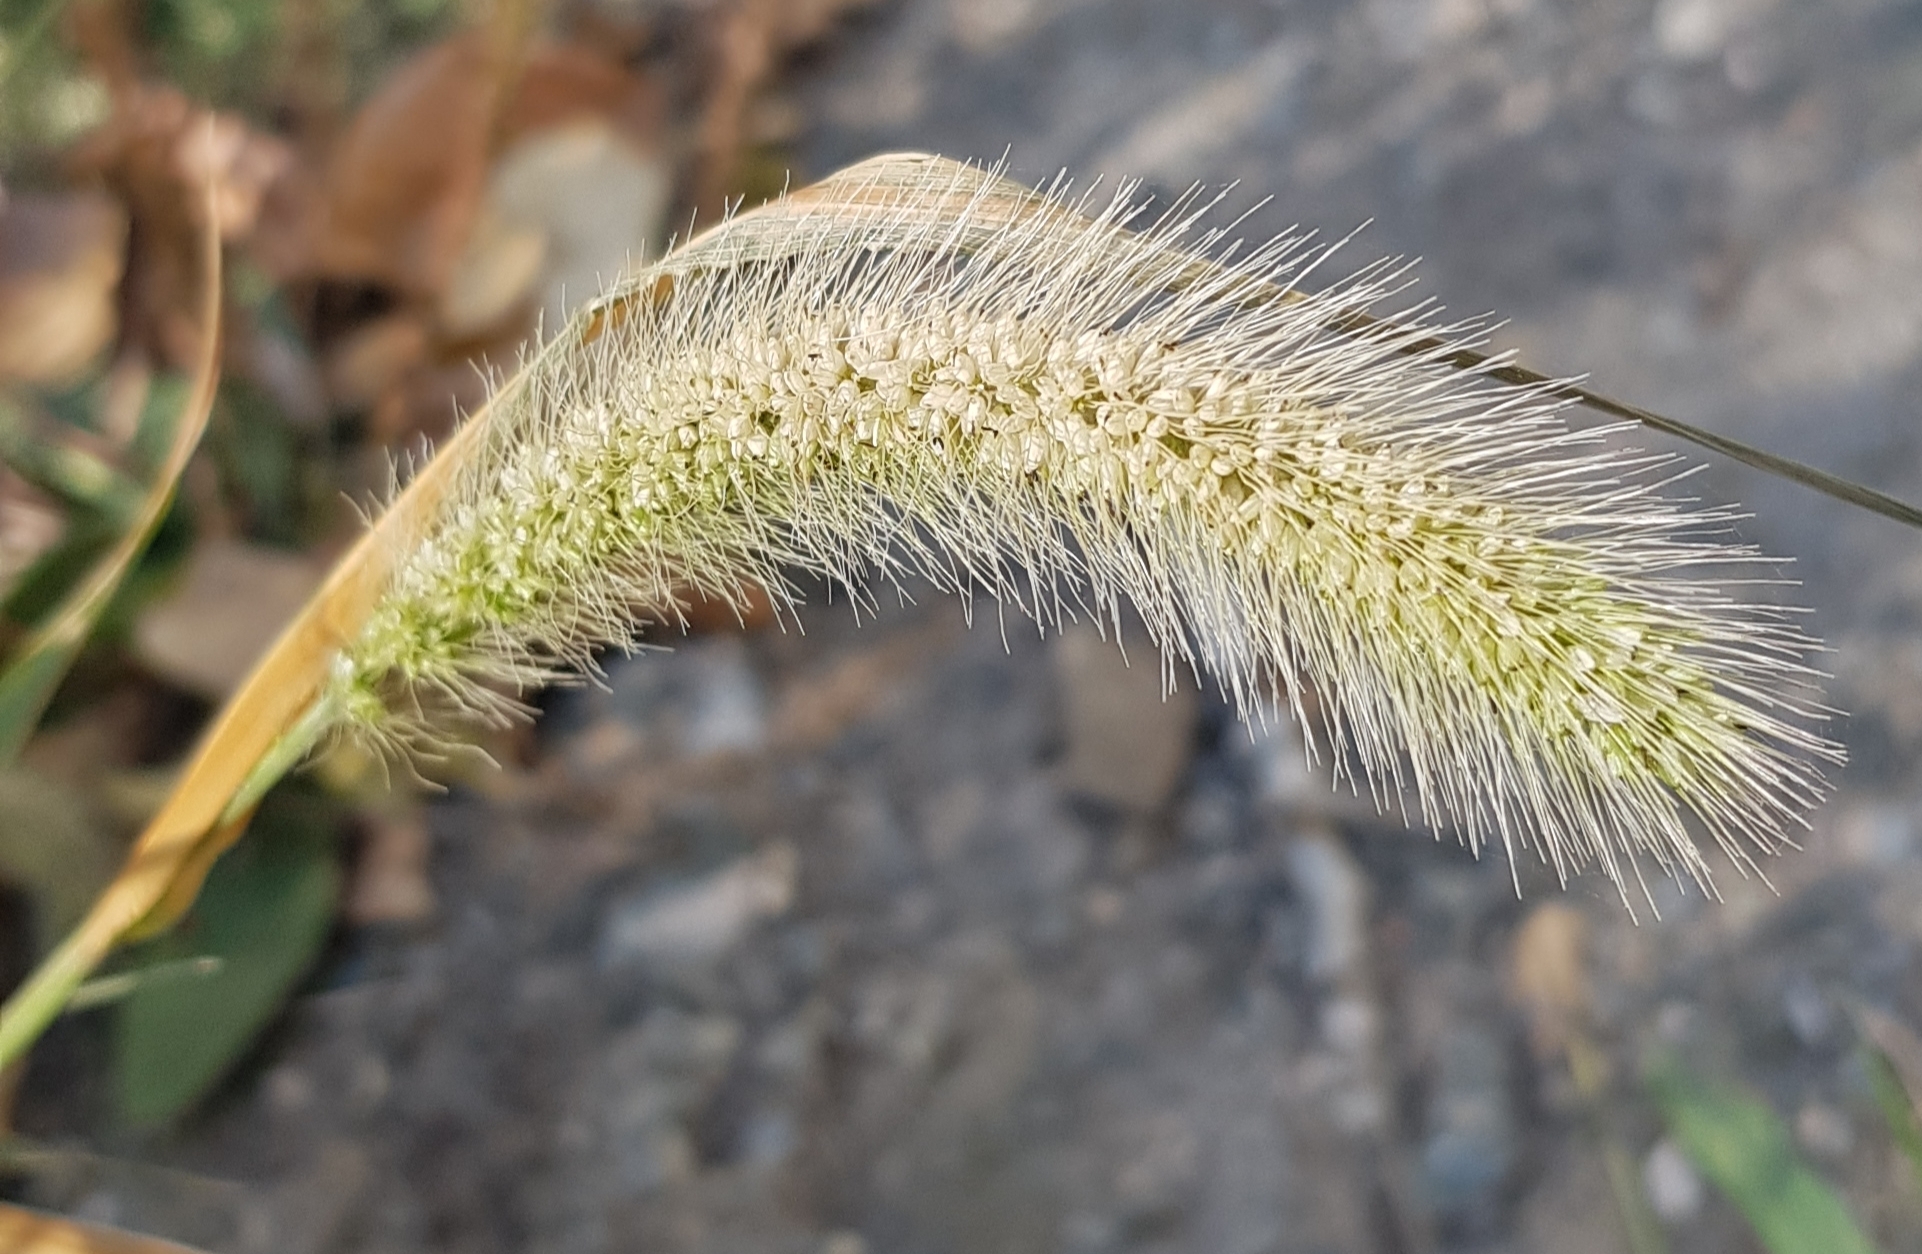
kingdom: Plantae
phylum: Tracheophyta
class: Liliopsida
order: Poales
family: Poaceae
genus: Setaria
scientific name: Setaria viridis
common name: Green bristlegrass
